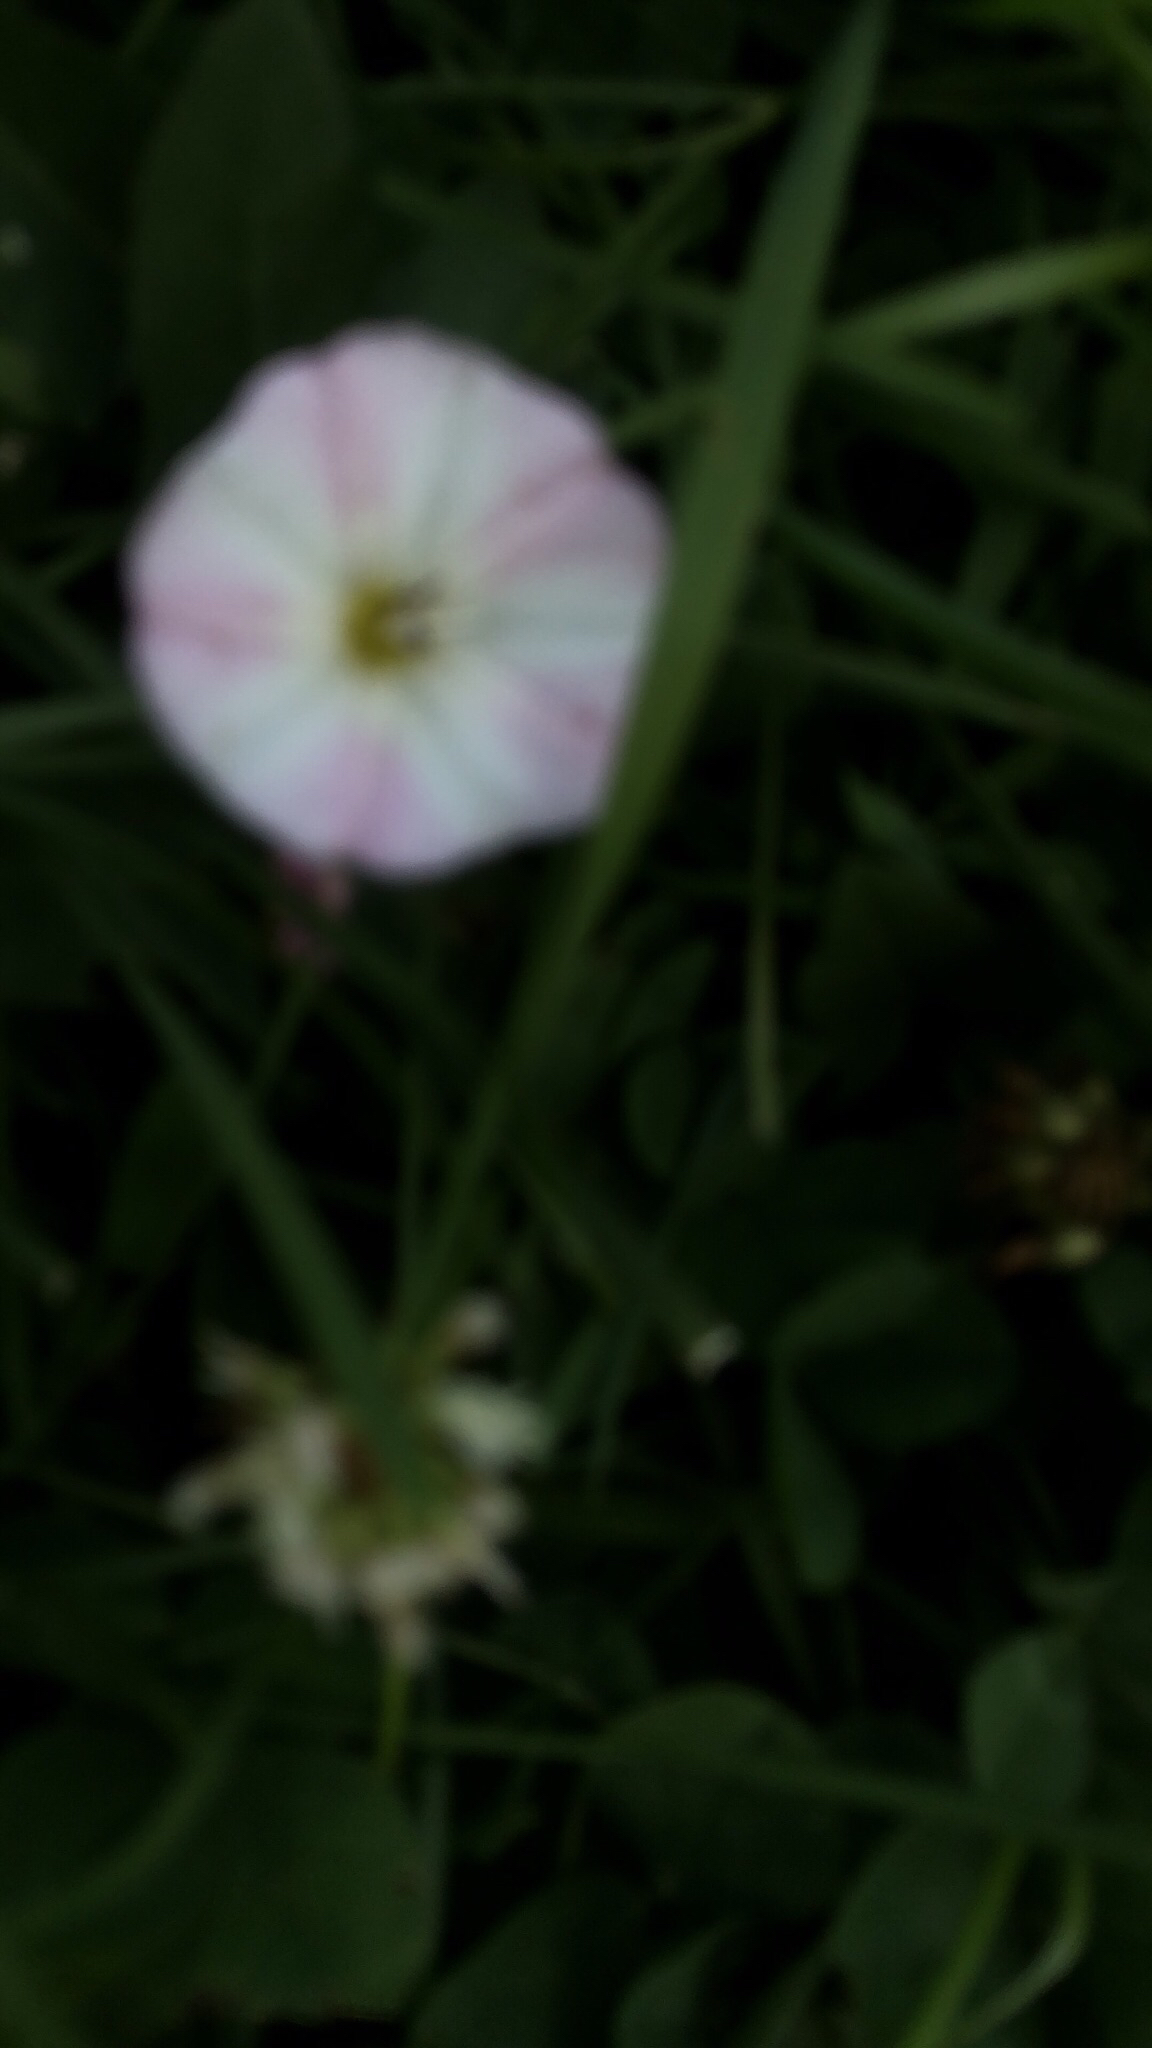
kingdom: Plantae
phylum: Tracheophyta
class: Magnoliopsida
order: Solanales
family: Convolvulaceae
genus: Convolvulus
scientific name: Convolvulus arvensis
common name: Field bindweed
